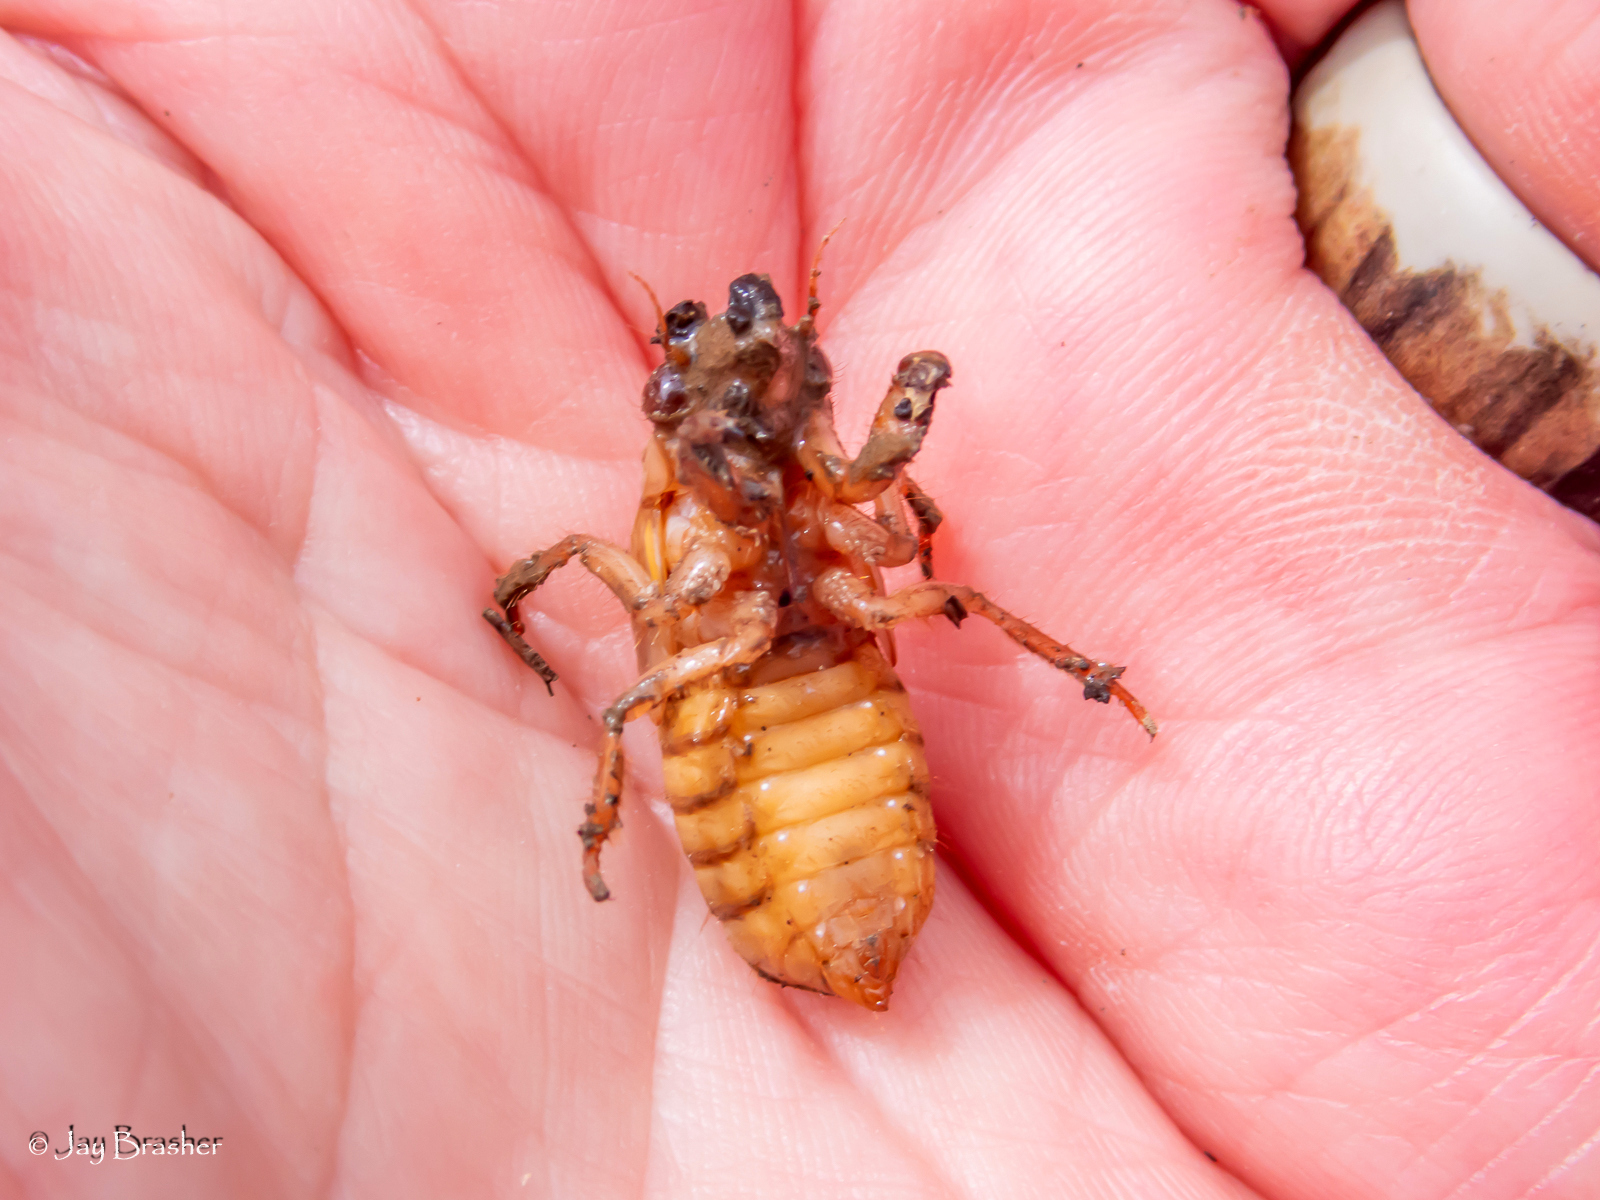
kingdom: Animalia
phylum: Arthropoda
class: Insecta
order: Hemiptera
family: Cicadidae
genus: Magicicada
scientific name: Magicicada
